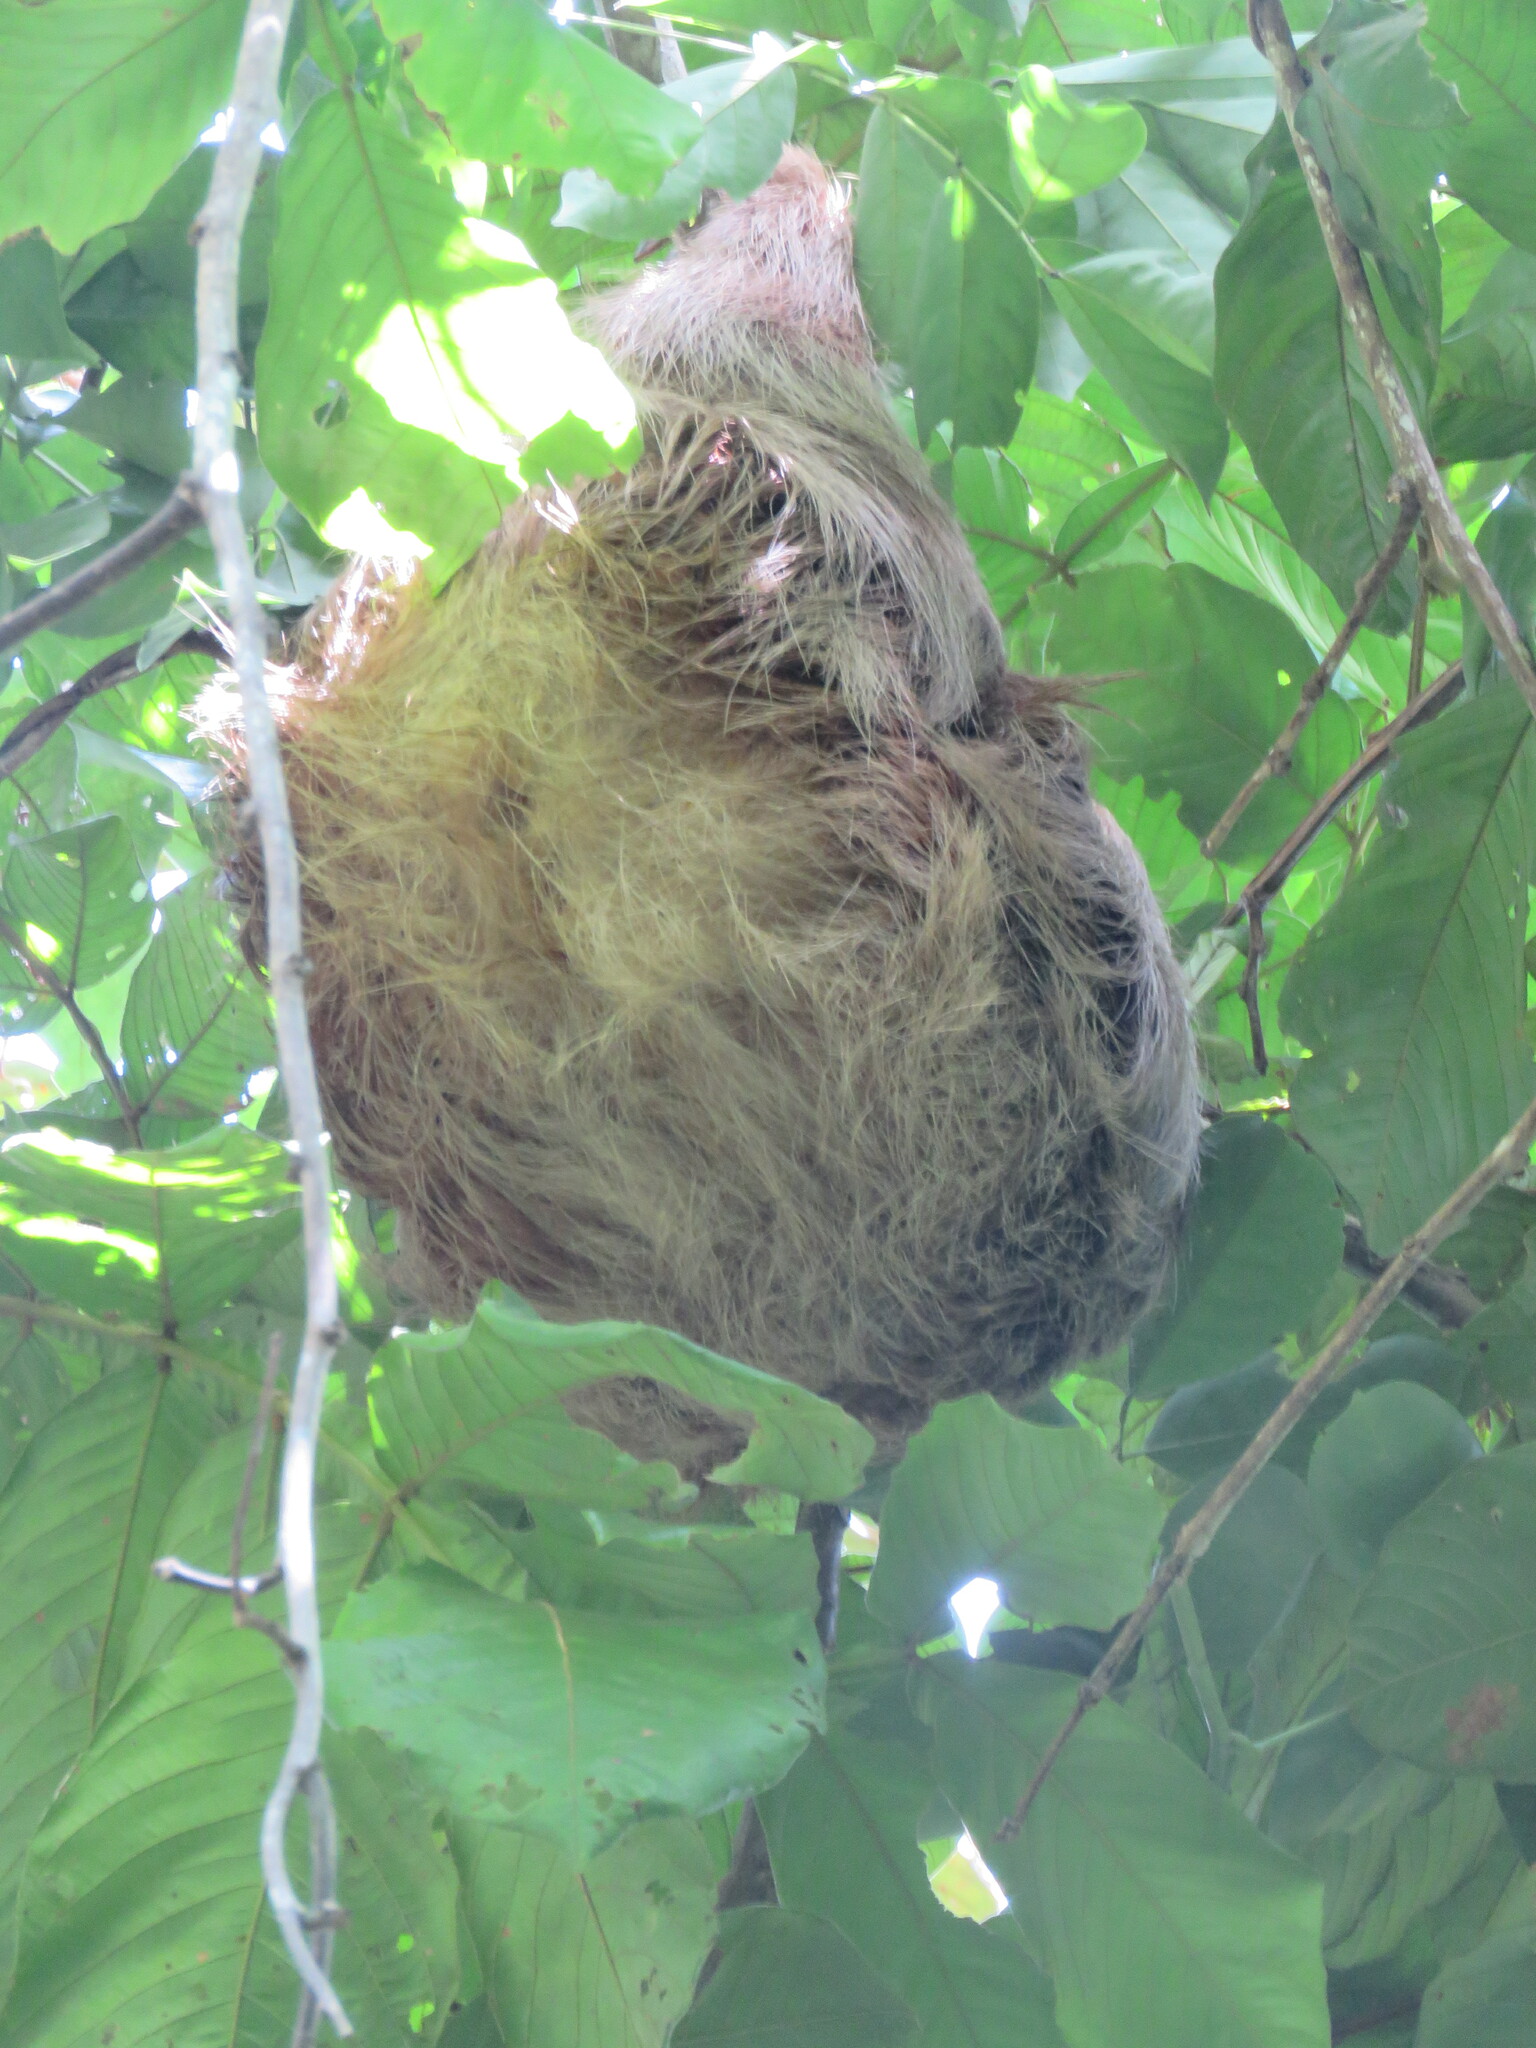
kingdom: Animalia
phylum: Chordata
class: Mammalia
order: Pilosa
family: Megalonychidae
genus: Choloepus
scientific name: Choloepus hoffmanni
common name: Hoffmann's two-toed sloth
